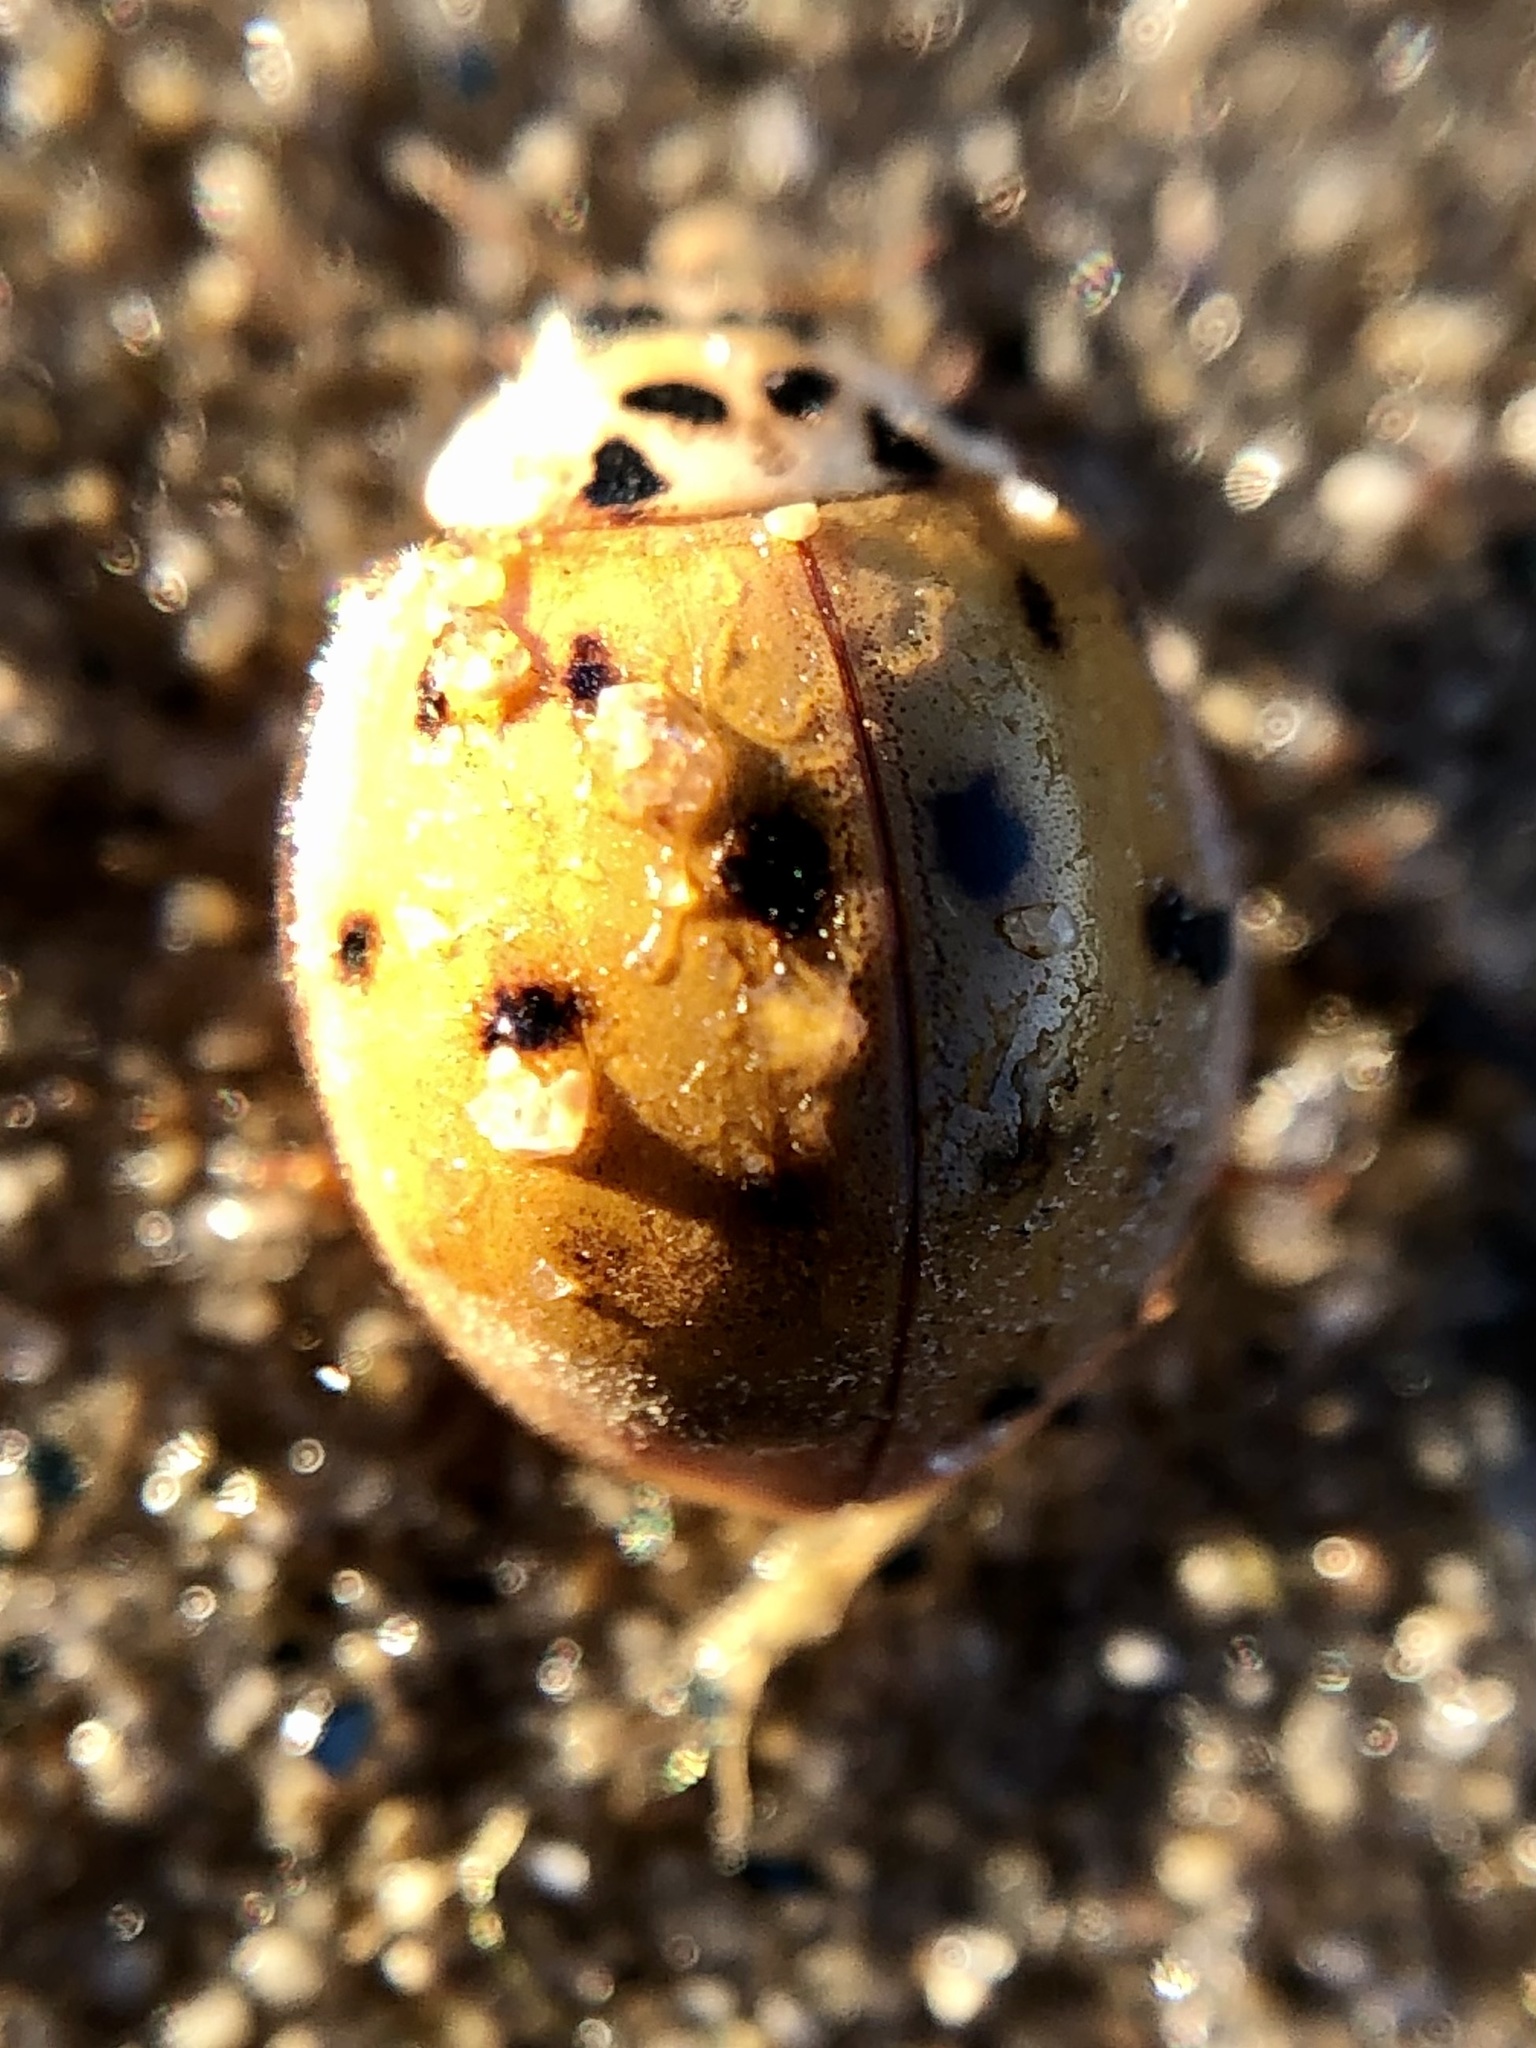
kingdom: Animalia
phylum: Arthropoda
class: Insecta
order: Coleoptera
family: Coccinellidae
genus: Harmonia
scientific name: Harmonia axyridis
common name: Harlequin ladybird
